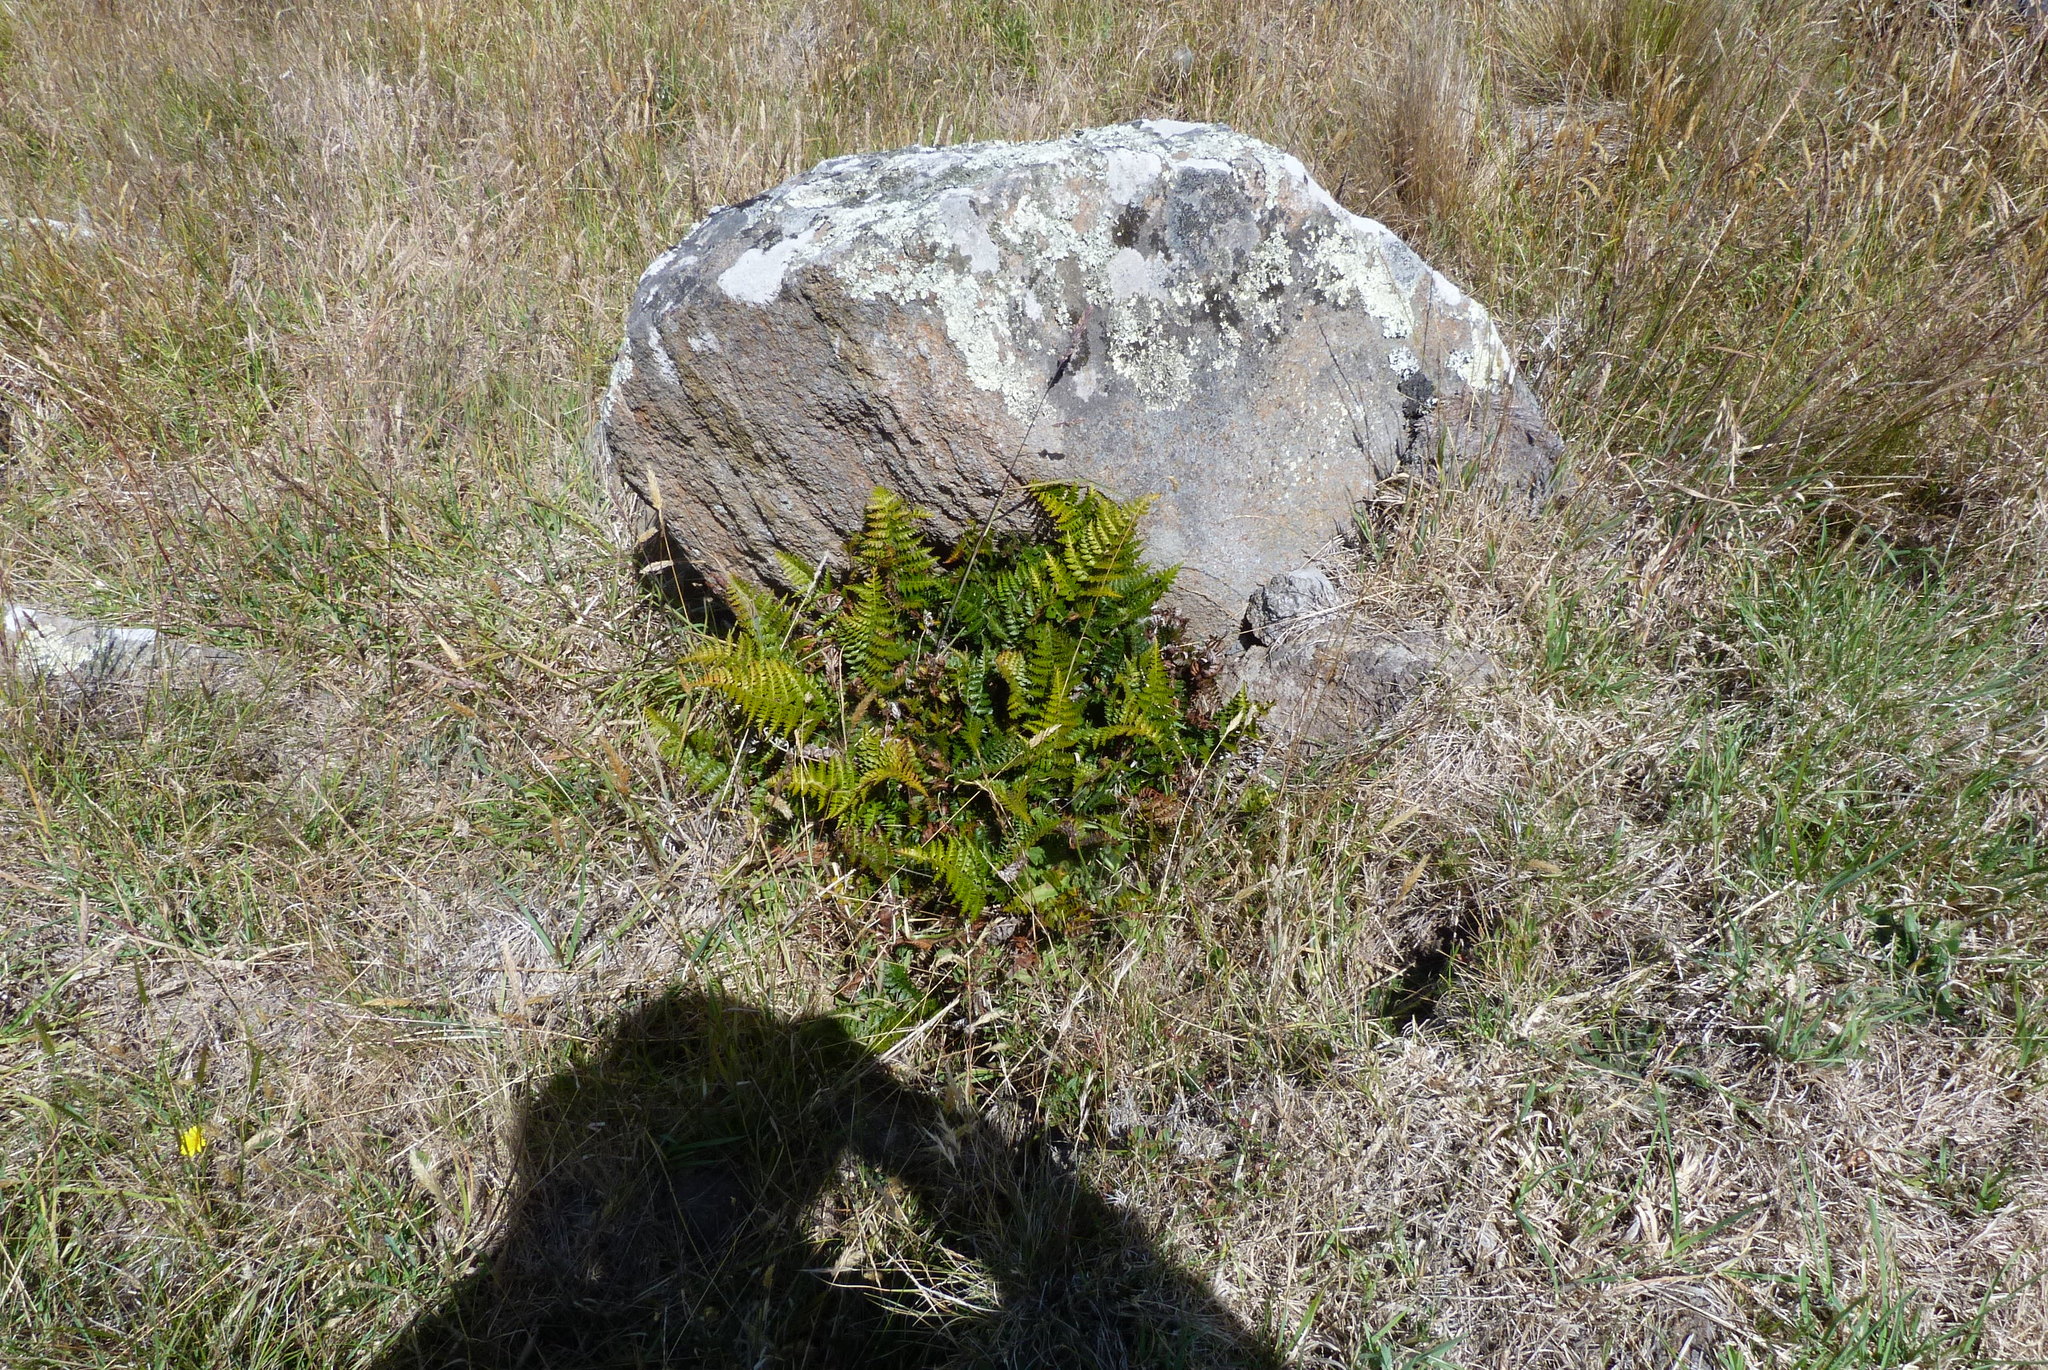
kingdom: Plantae
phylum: Tracheophyta
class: Polypodiopsida
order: Polypodiales
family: Dryopteridaceae
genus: Polystichum
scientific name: Polystichum oculatum
